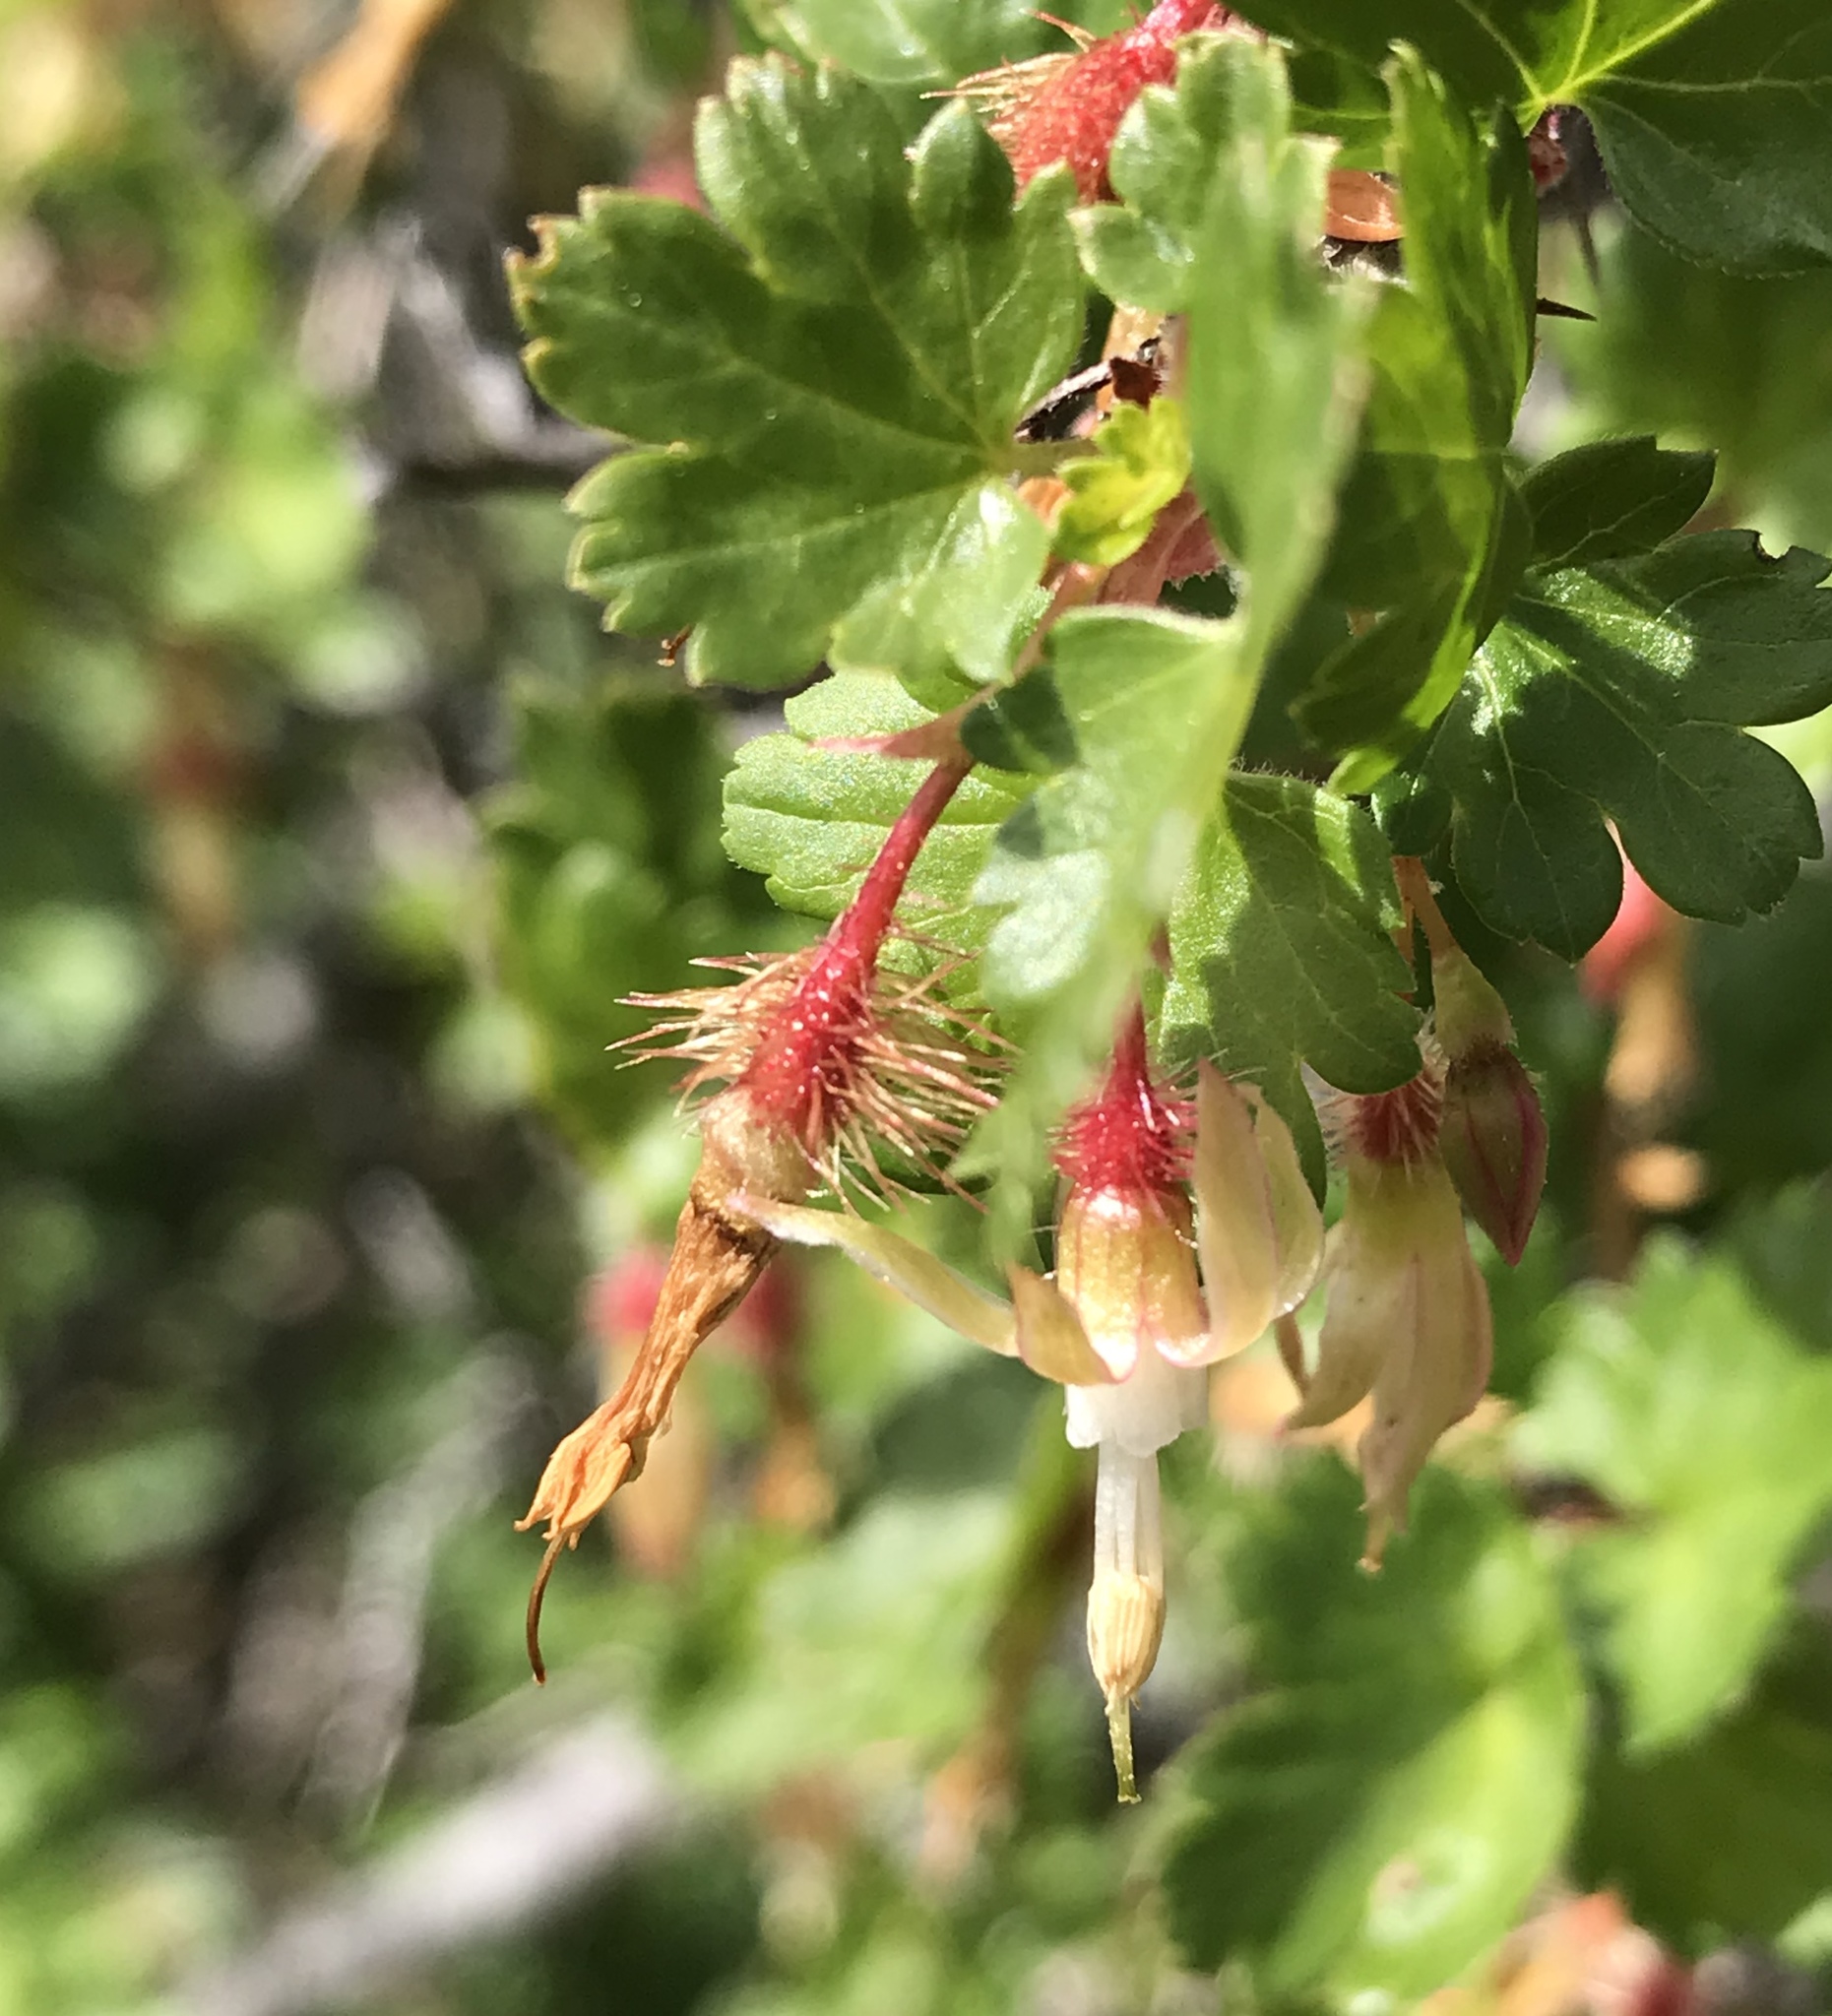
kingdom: Plantae
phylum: Tracheophyta
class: Magnoliopsida
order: Saxifragales
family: Grossulariaceae
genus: Ribes
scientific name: Ribes californicum
